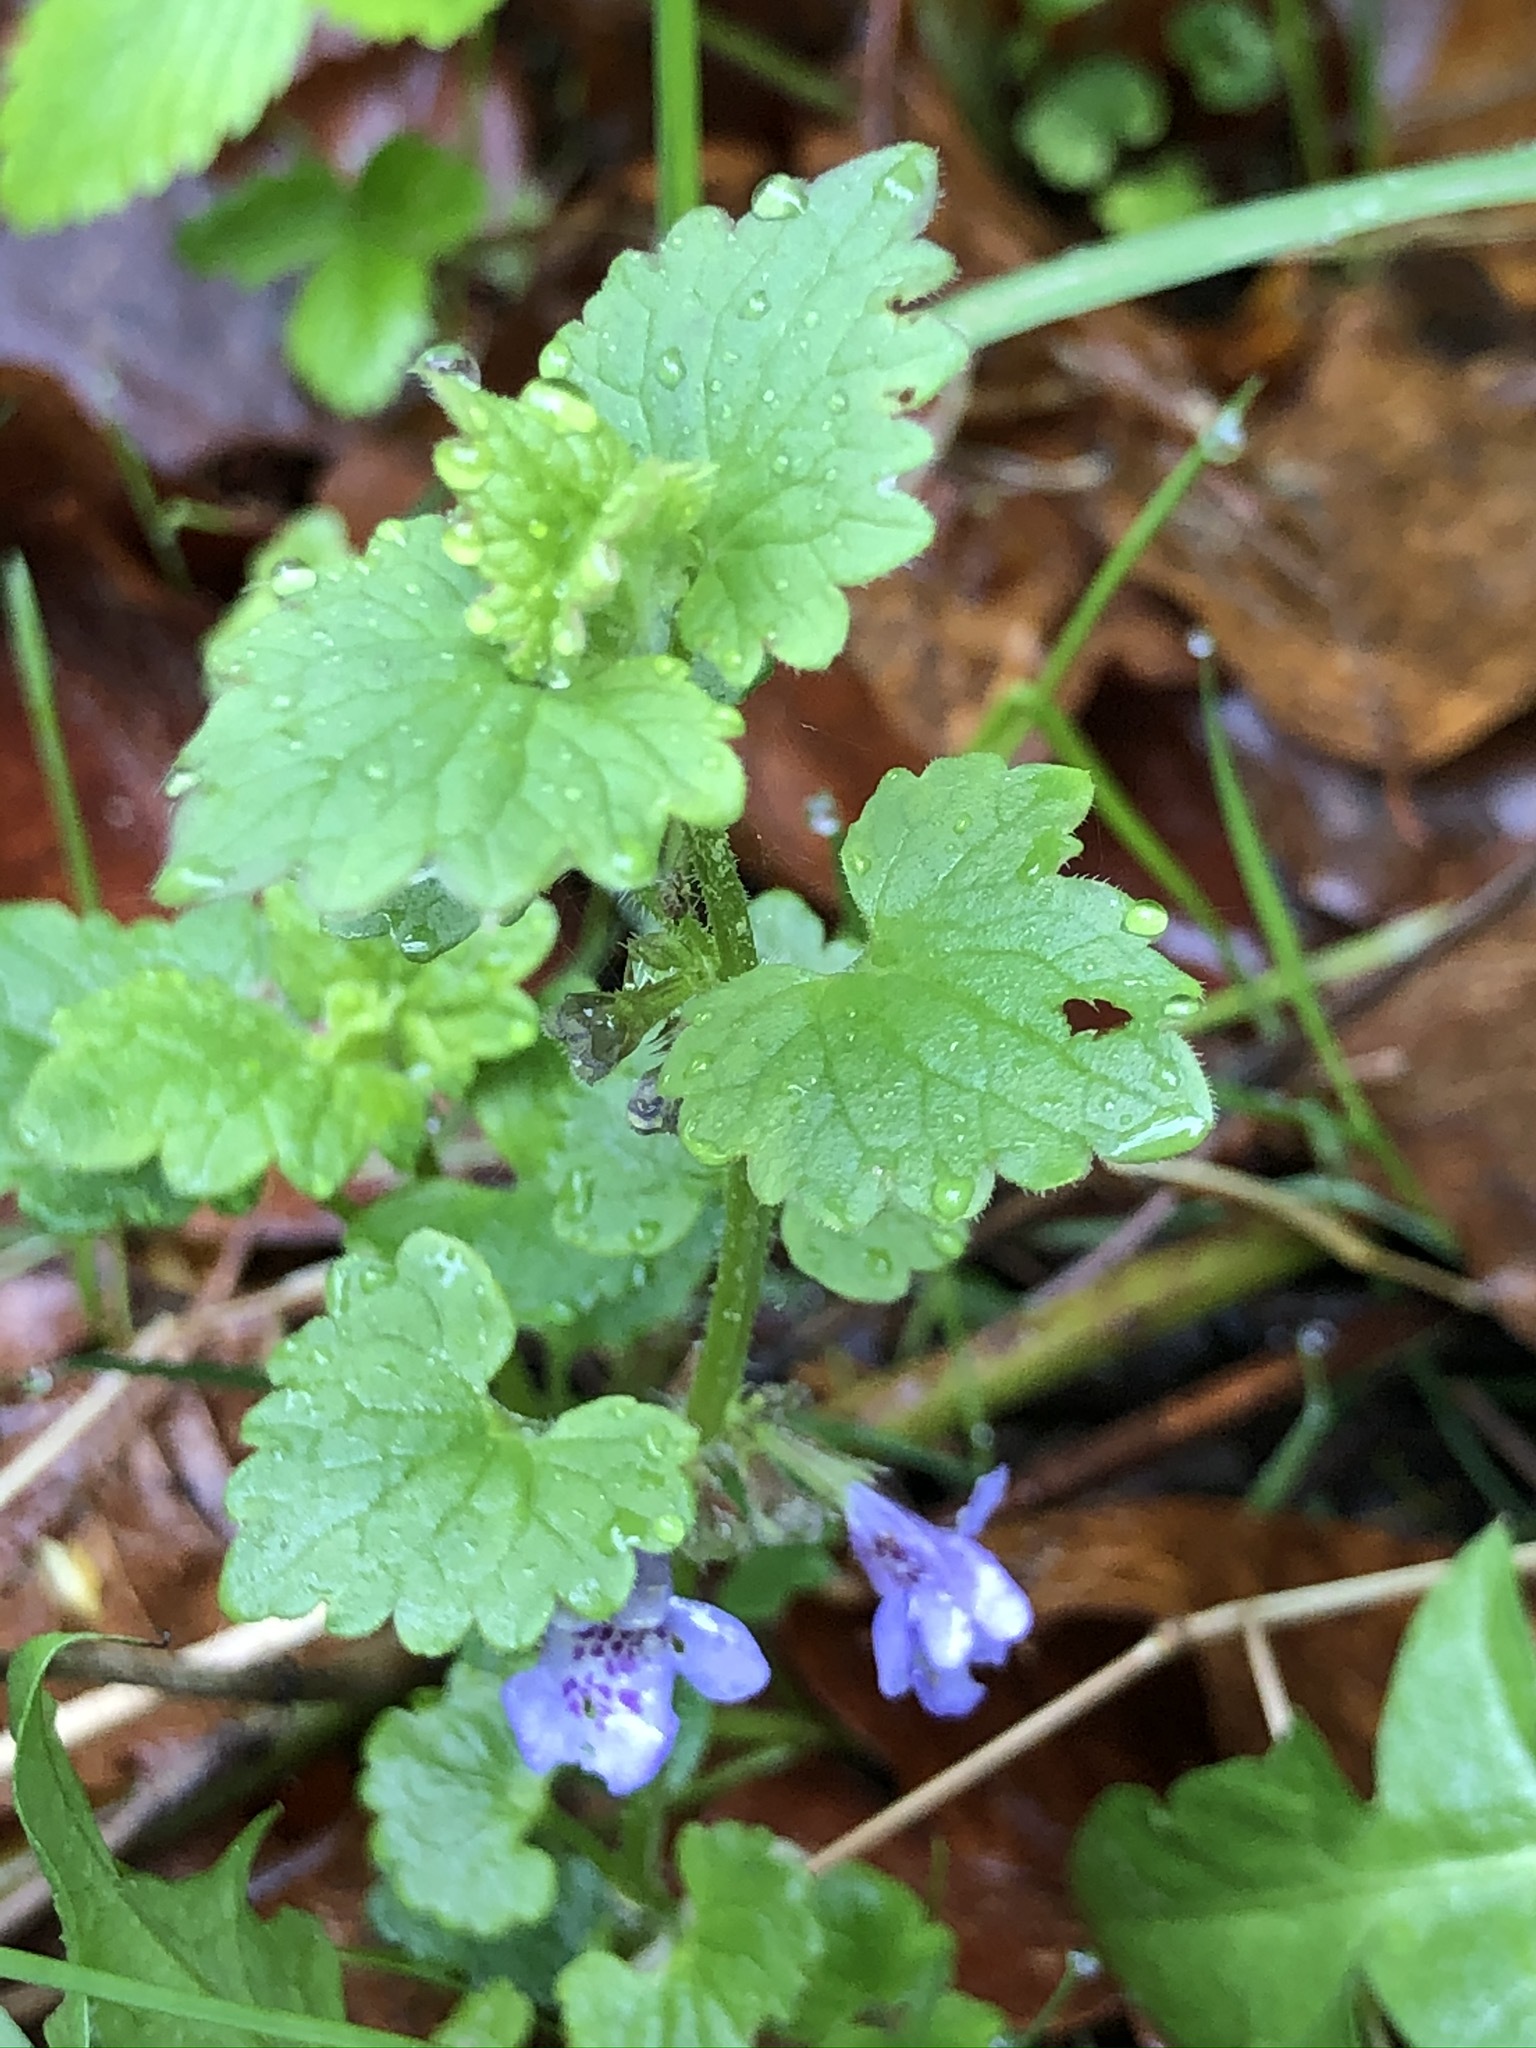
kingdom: Plantae
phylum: Tracheophyta
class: Magnoliopsida
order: Lamiales
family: Lamiaceae
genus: Glechoma
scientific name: Glechoma hederacea
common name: Ground ivy
